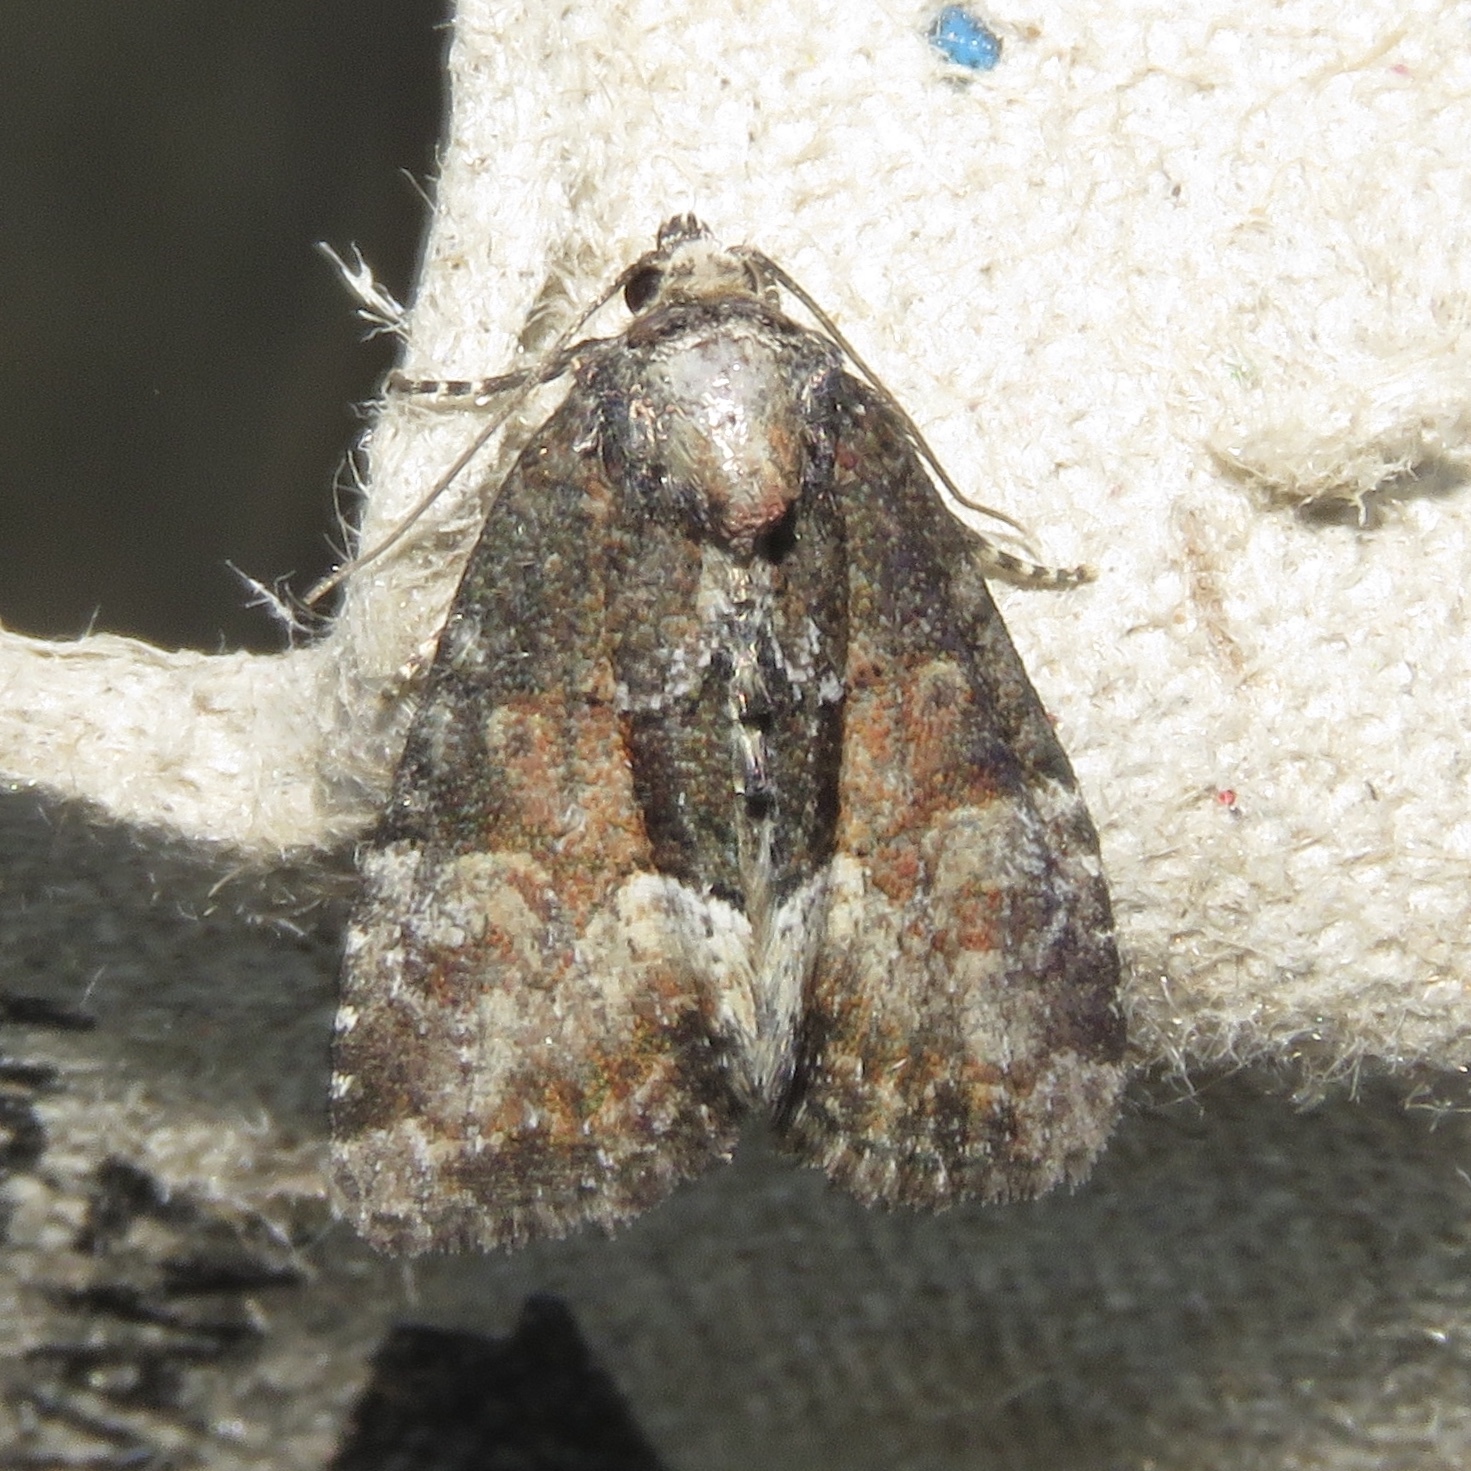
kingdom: Animalia
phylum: Arthropoda
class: Insecta
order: Lepidoptera
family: Noctuidae
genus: Neoligia
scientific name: Neoligia subjuncta
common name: Connected brocade
